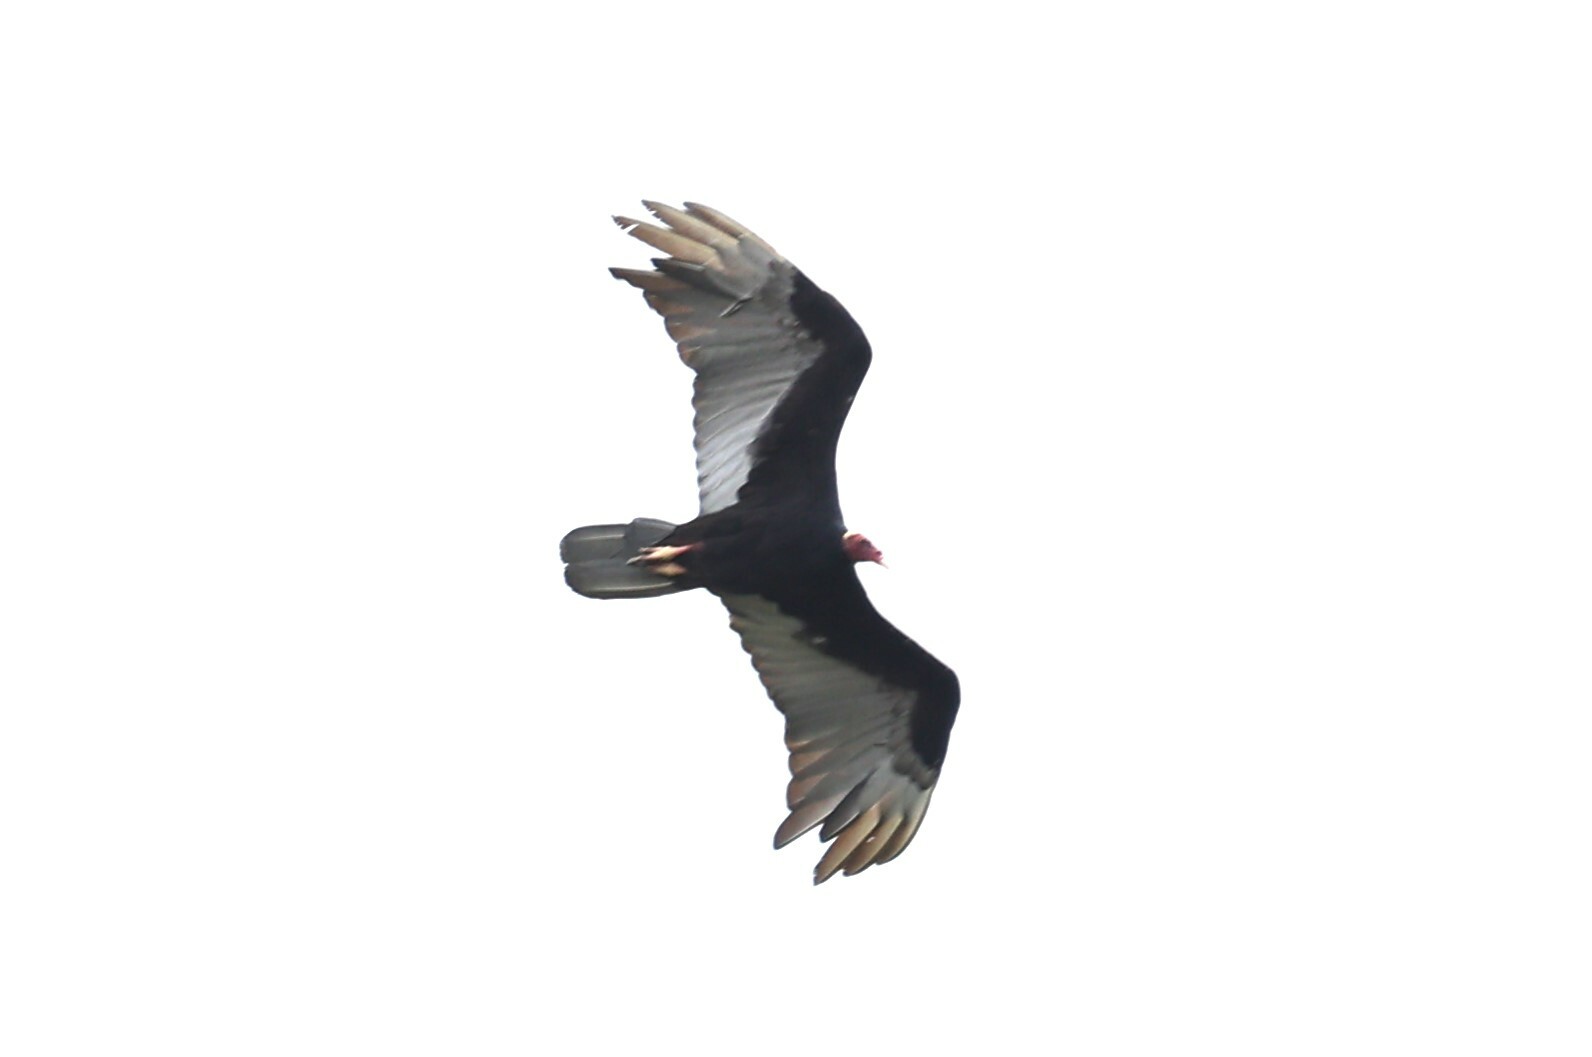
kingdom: Animalia
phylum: Chordata
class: Aves
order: Accipitriformes
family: Cathartidae
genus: Cathartes
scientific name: Cathartes aura
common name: Turkey vulture
